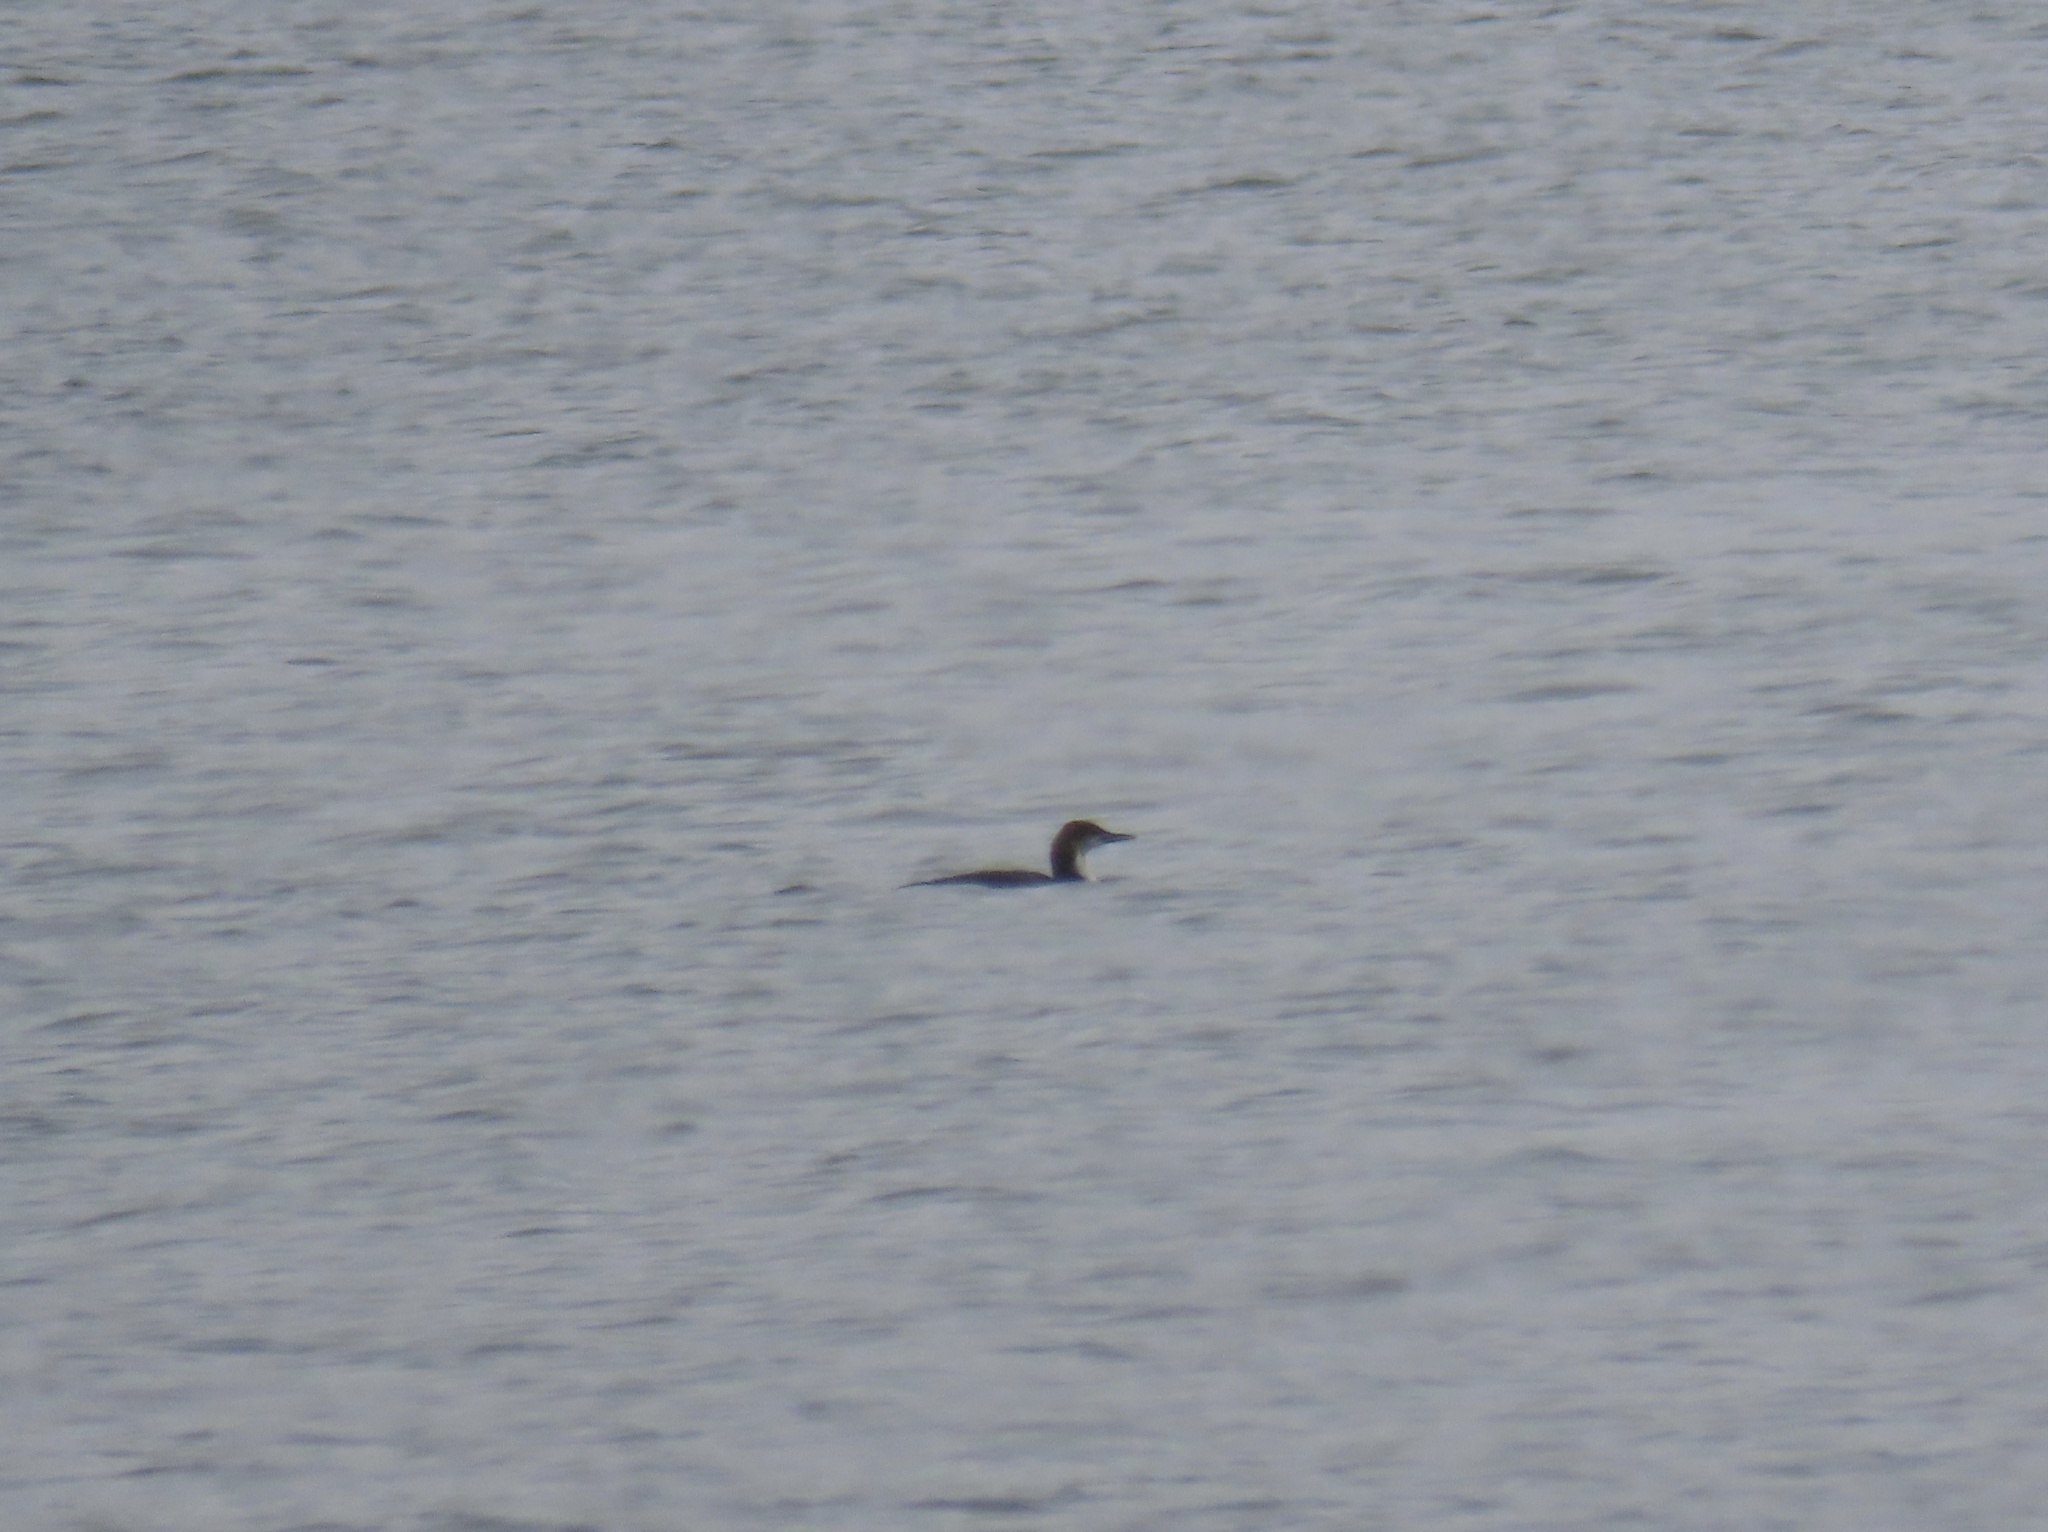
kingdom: Animalia
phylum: Chordata
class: Aves
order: Gaviiformes
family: Gaviidae
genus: Gavia
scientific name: Gavia immer
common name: Common loon
